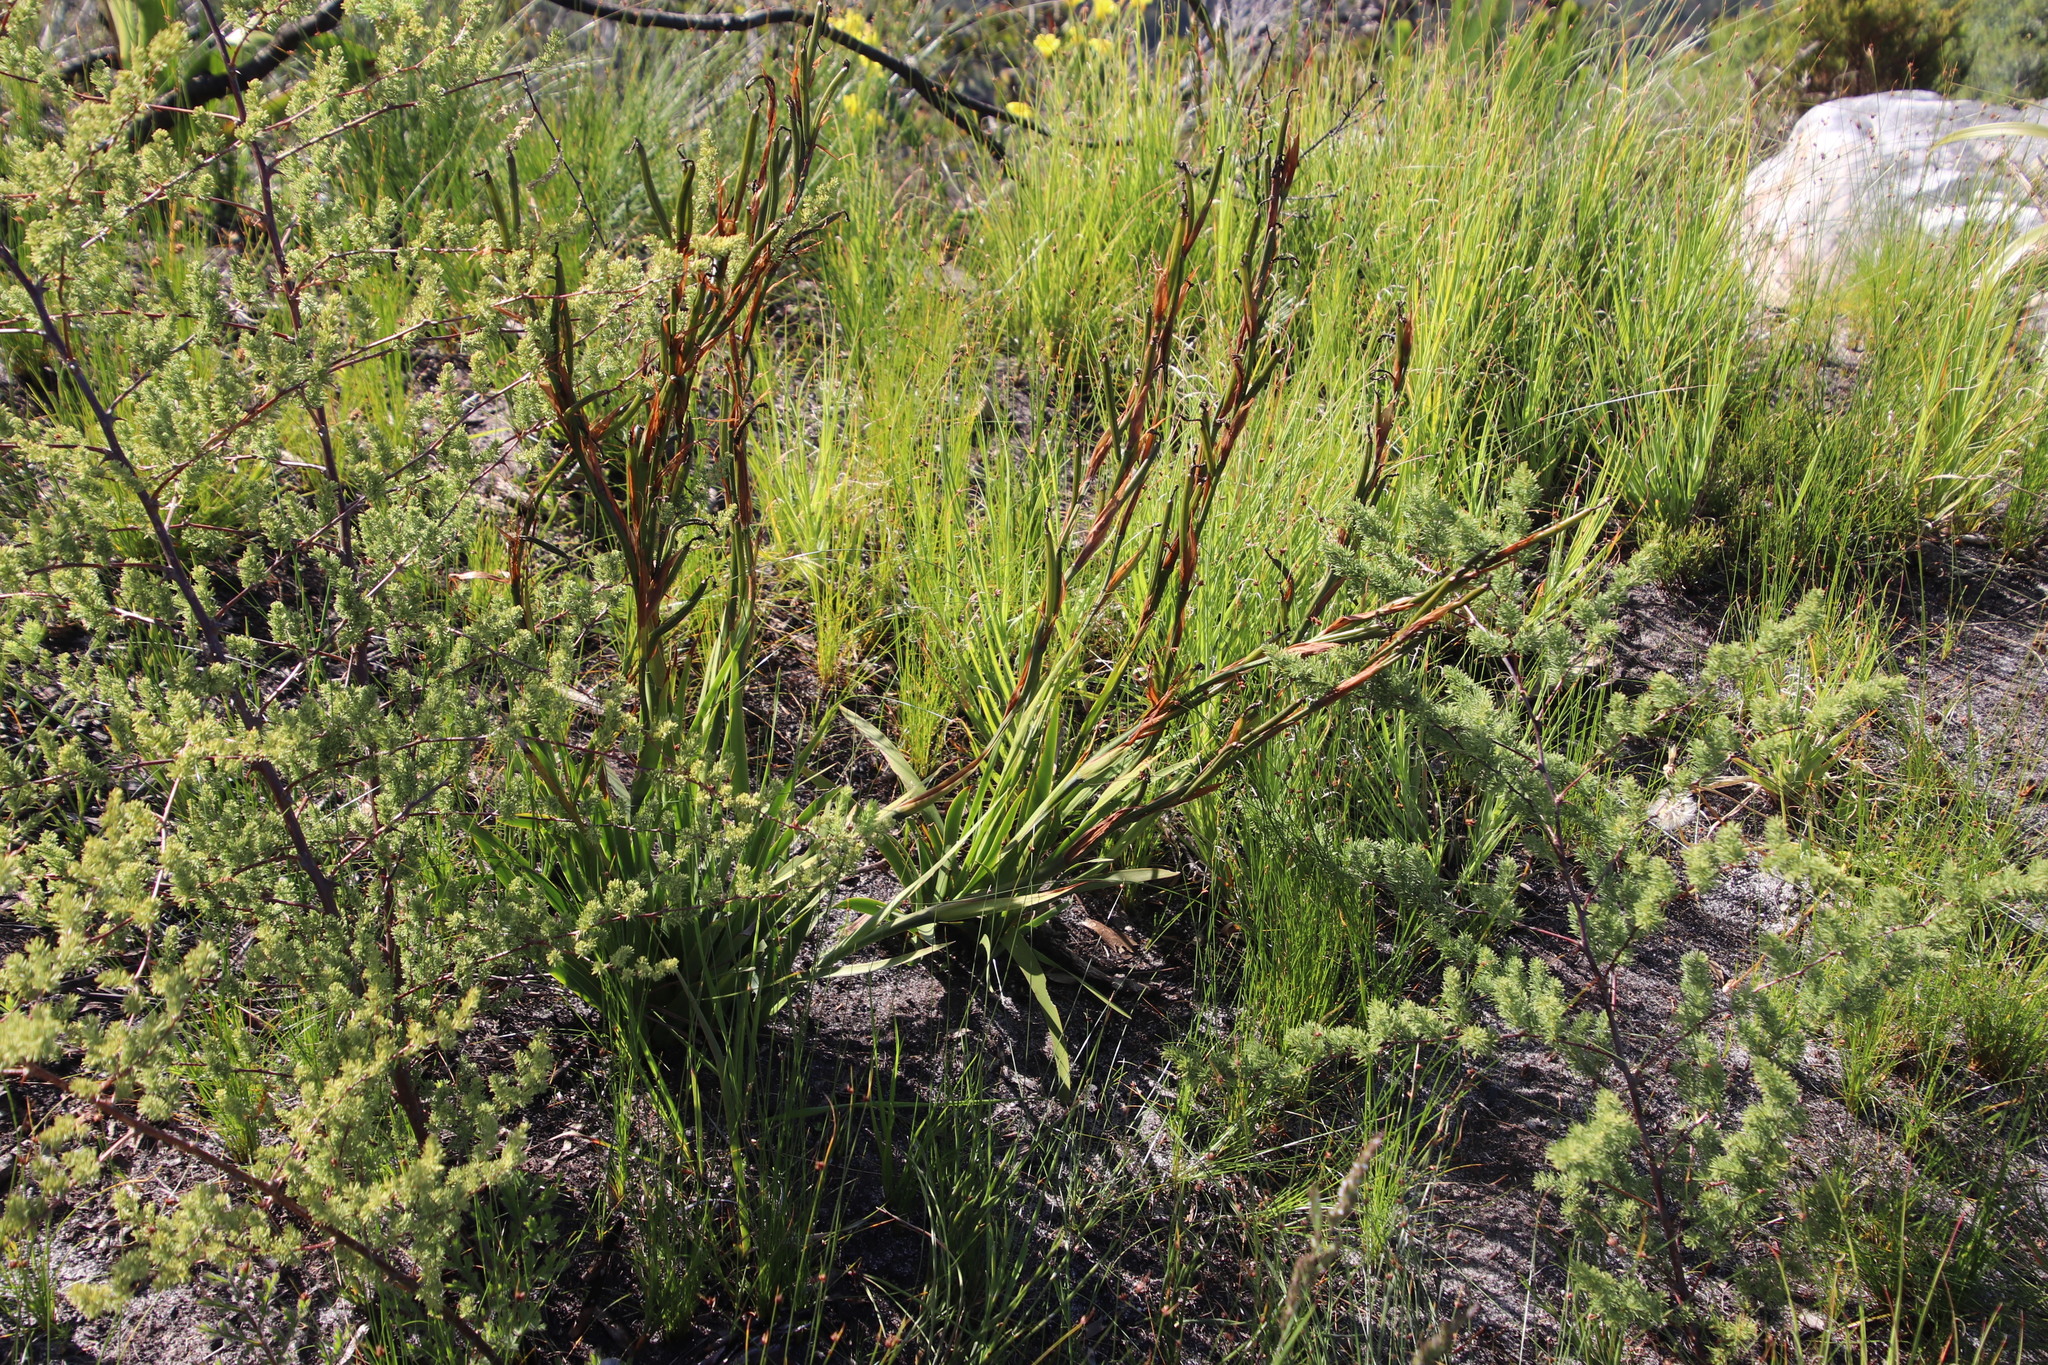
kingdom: Plantae
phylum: Tracheophyta
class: Liliopsida
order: Asparagales
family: Iridaceae
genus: Moraea
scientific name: Moraea ochroleuca
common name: Red tulp
